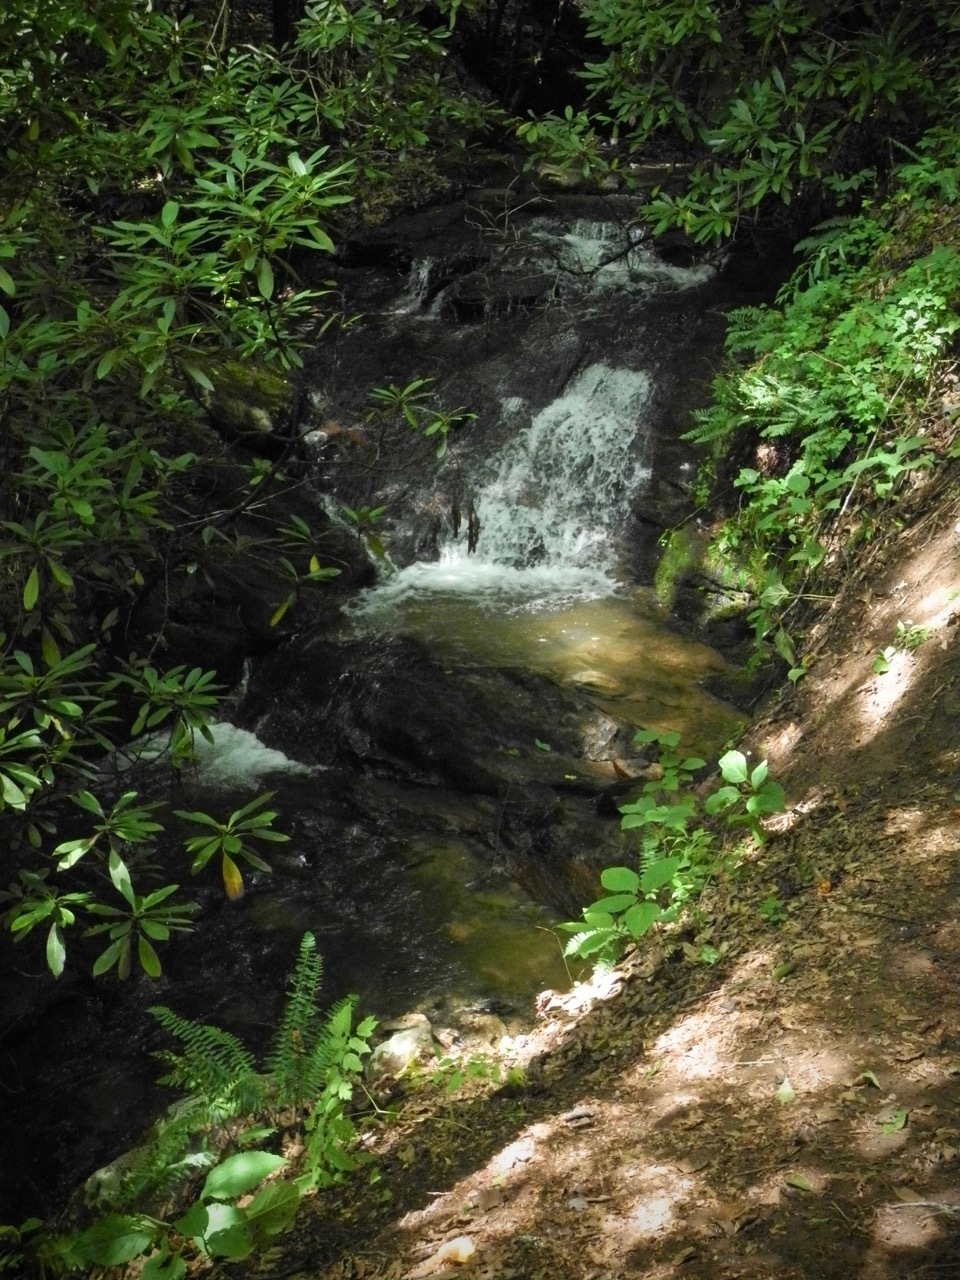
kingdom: Plantae
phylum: Tracheophyta
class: Polypodiopsida
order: Polypodiales
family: Dryopteridaceae
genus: Polystichum
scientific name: Polystichum acrostichoides
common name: Christmas fern
